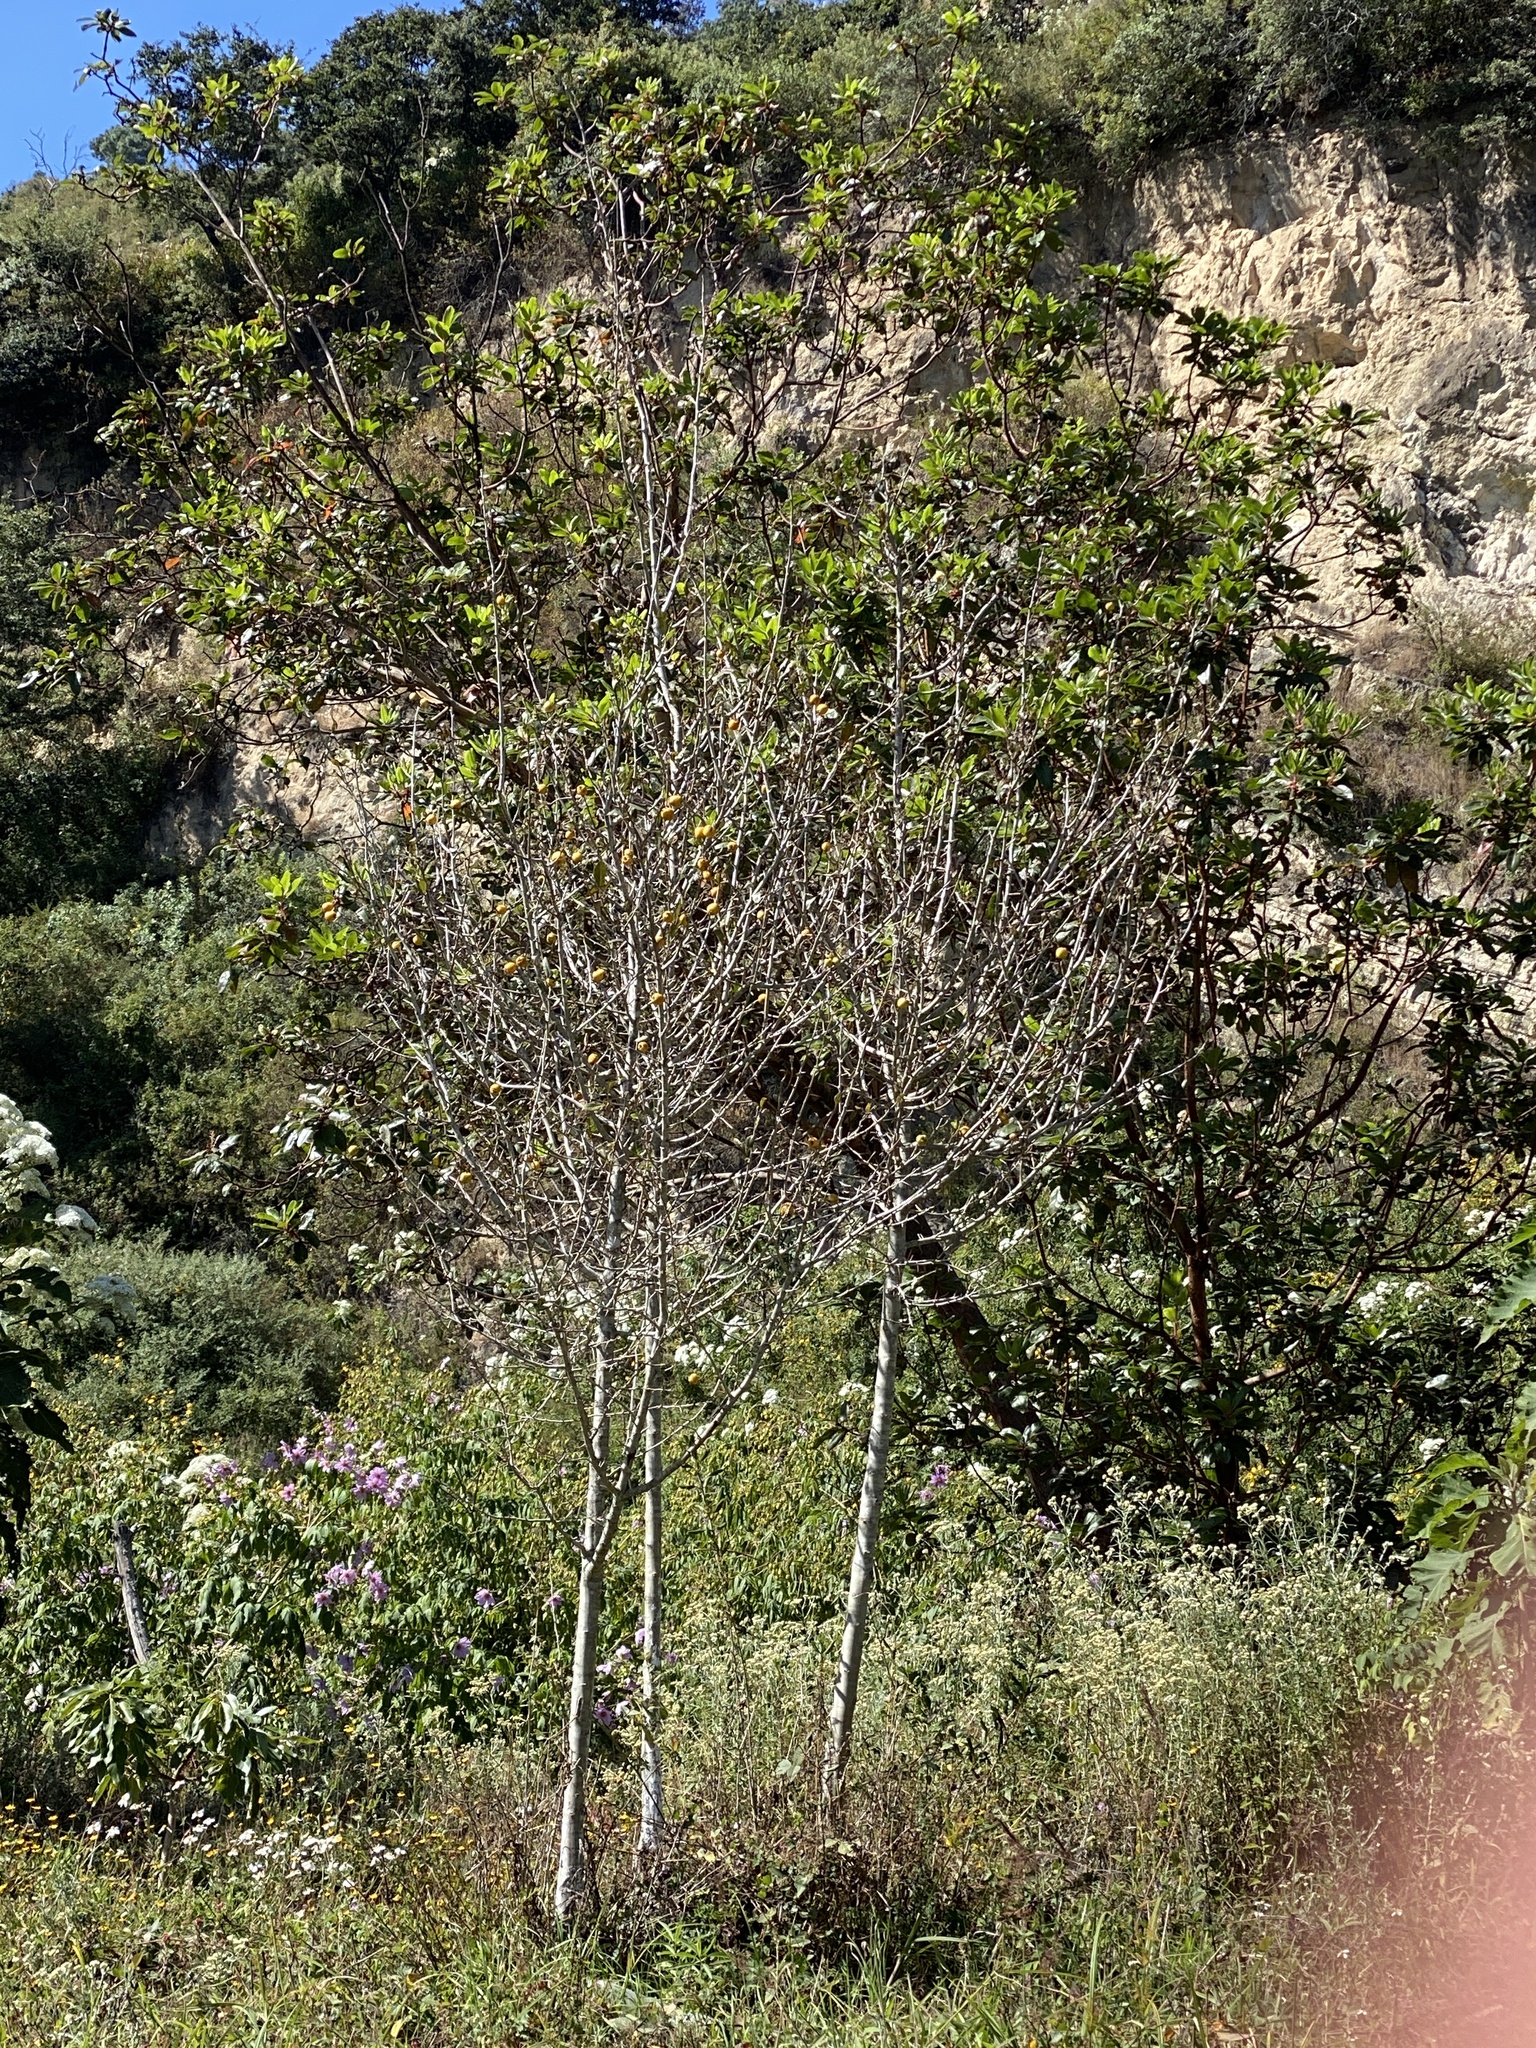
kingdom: Plantae
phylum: Tracheophyta
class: Magnoliopsida
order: Rosales
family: Rosaceae
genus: Crataegus
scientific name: Crataegus mexicana
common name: Mexican hawthorn
